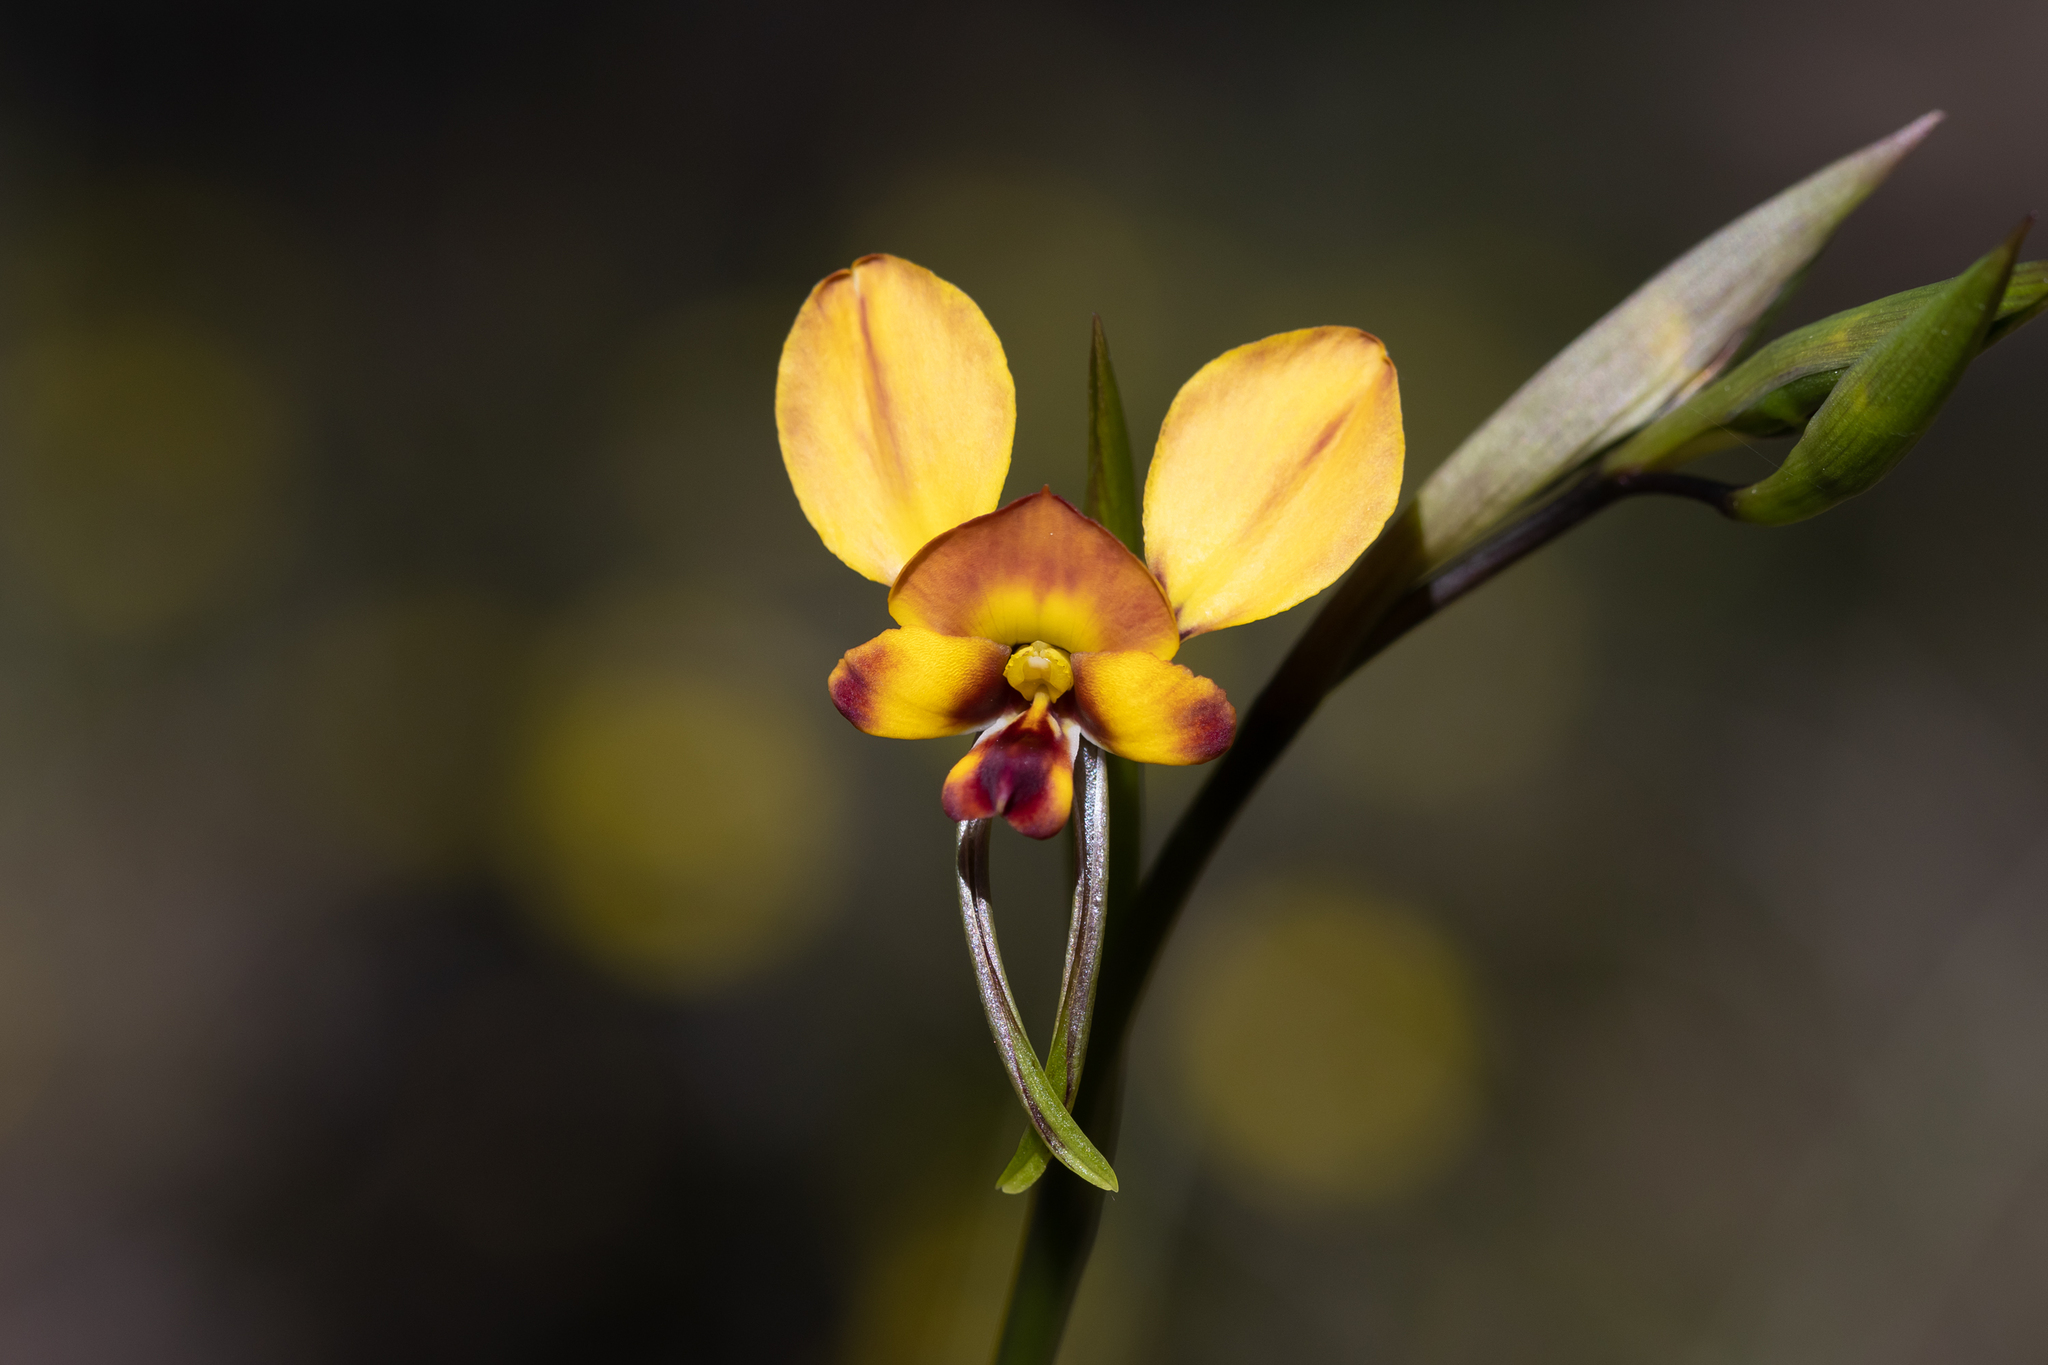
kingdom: Plantae
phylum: Tracheophyta
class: Liliopsida
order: Asparagales
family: Orchidaceae
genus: Diuris
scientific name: Diuris orientis
